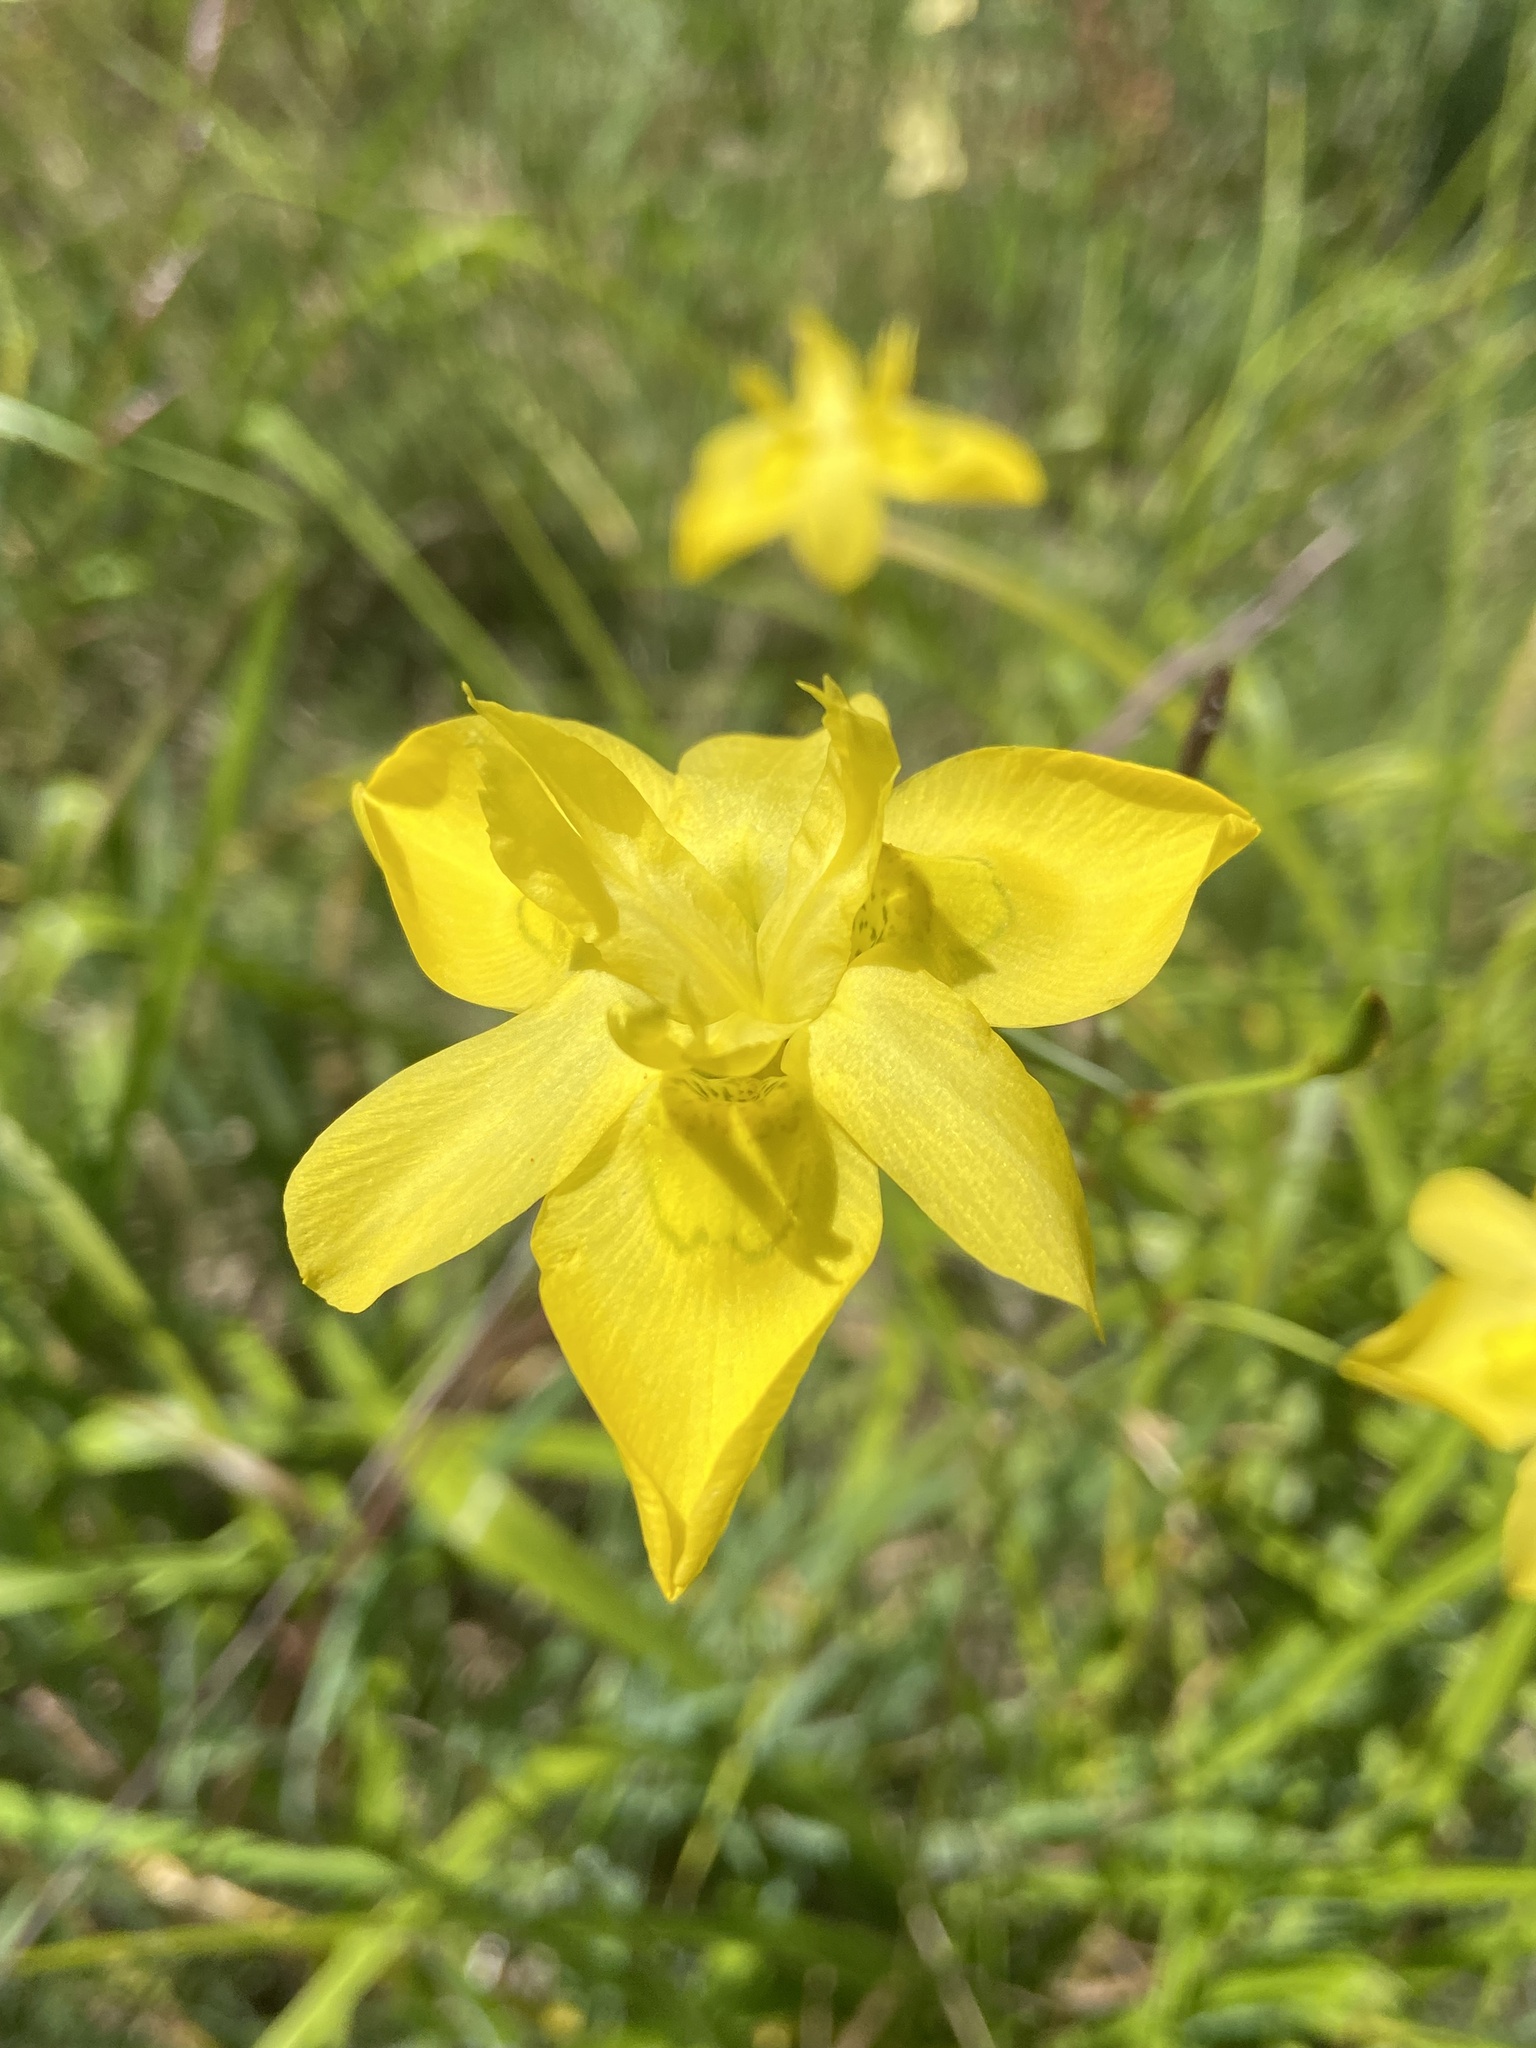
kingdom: Plantae
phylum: Tracheophyta
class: Liliopsida
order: Asparagales
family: Iridaceae
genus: Moraea
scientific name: Moraea ramosissima
